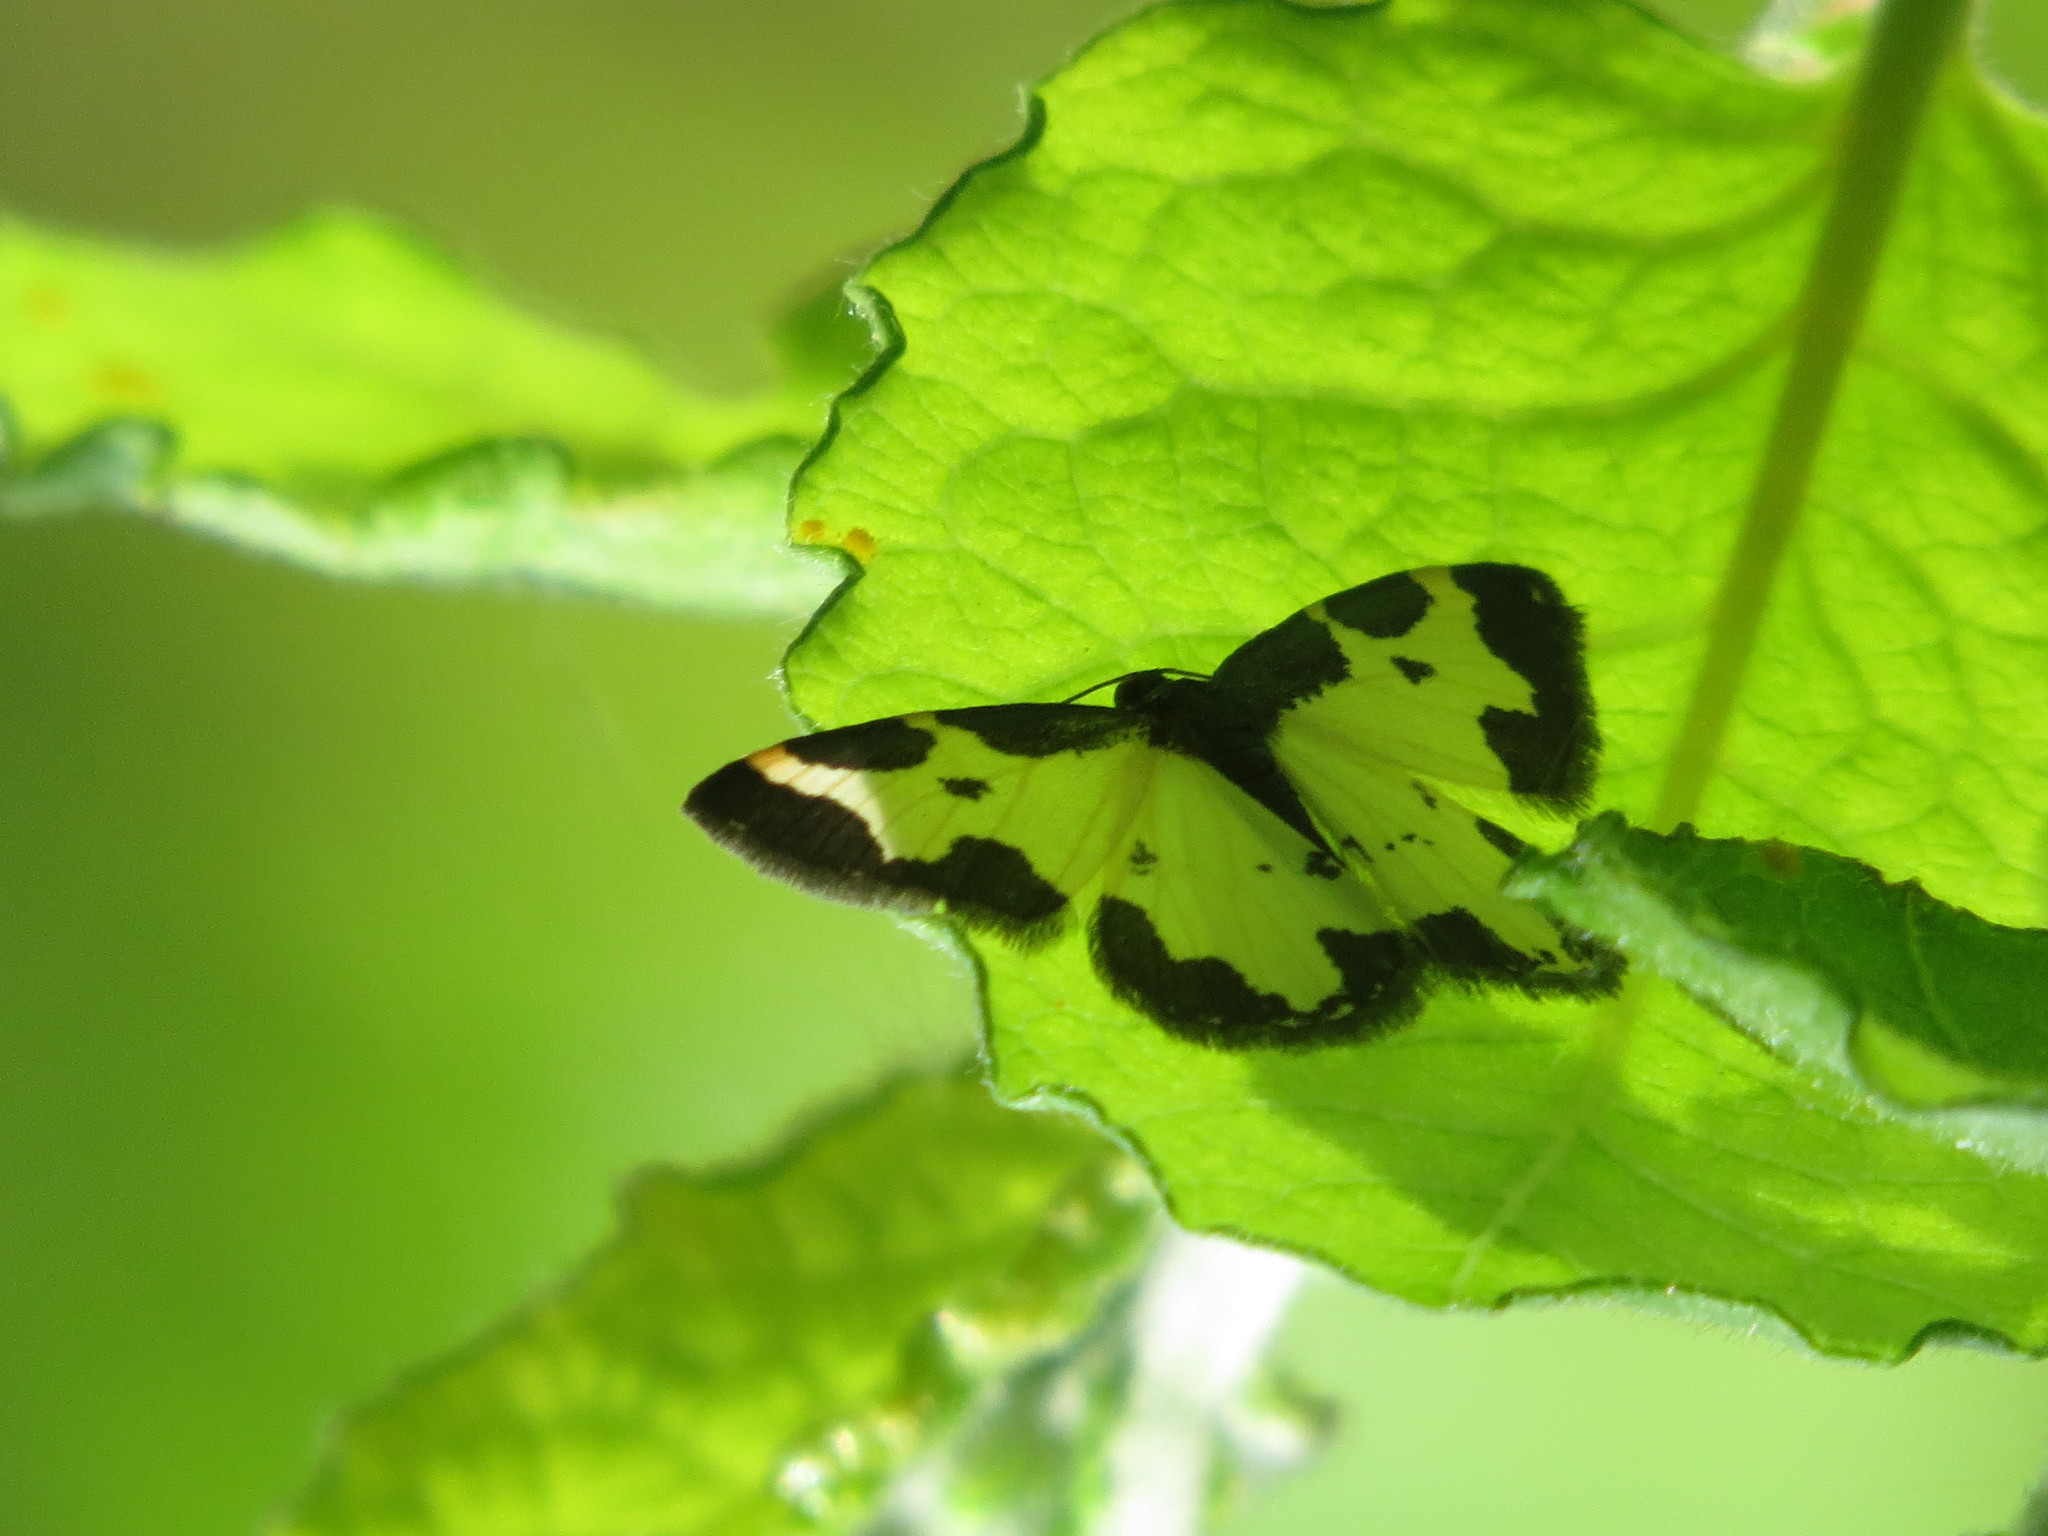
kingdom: Animalia
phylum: Arthropoda
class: Insecta
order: Lepidoptera
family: Geometridae
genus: Lomaspilis
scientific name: Lomaspilis marginata
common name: Clouded border
